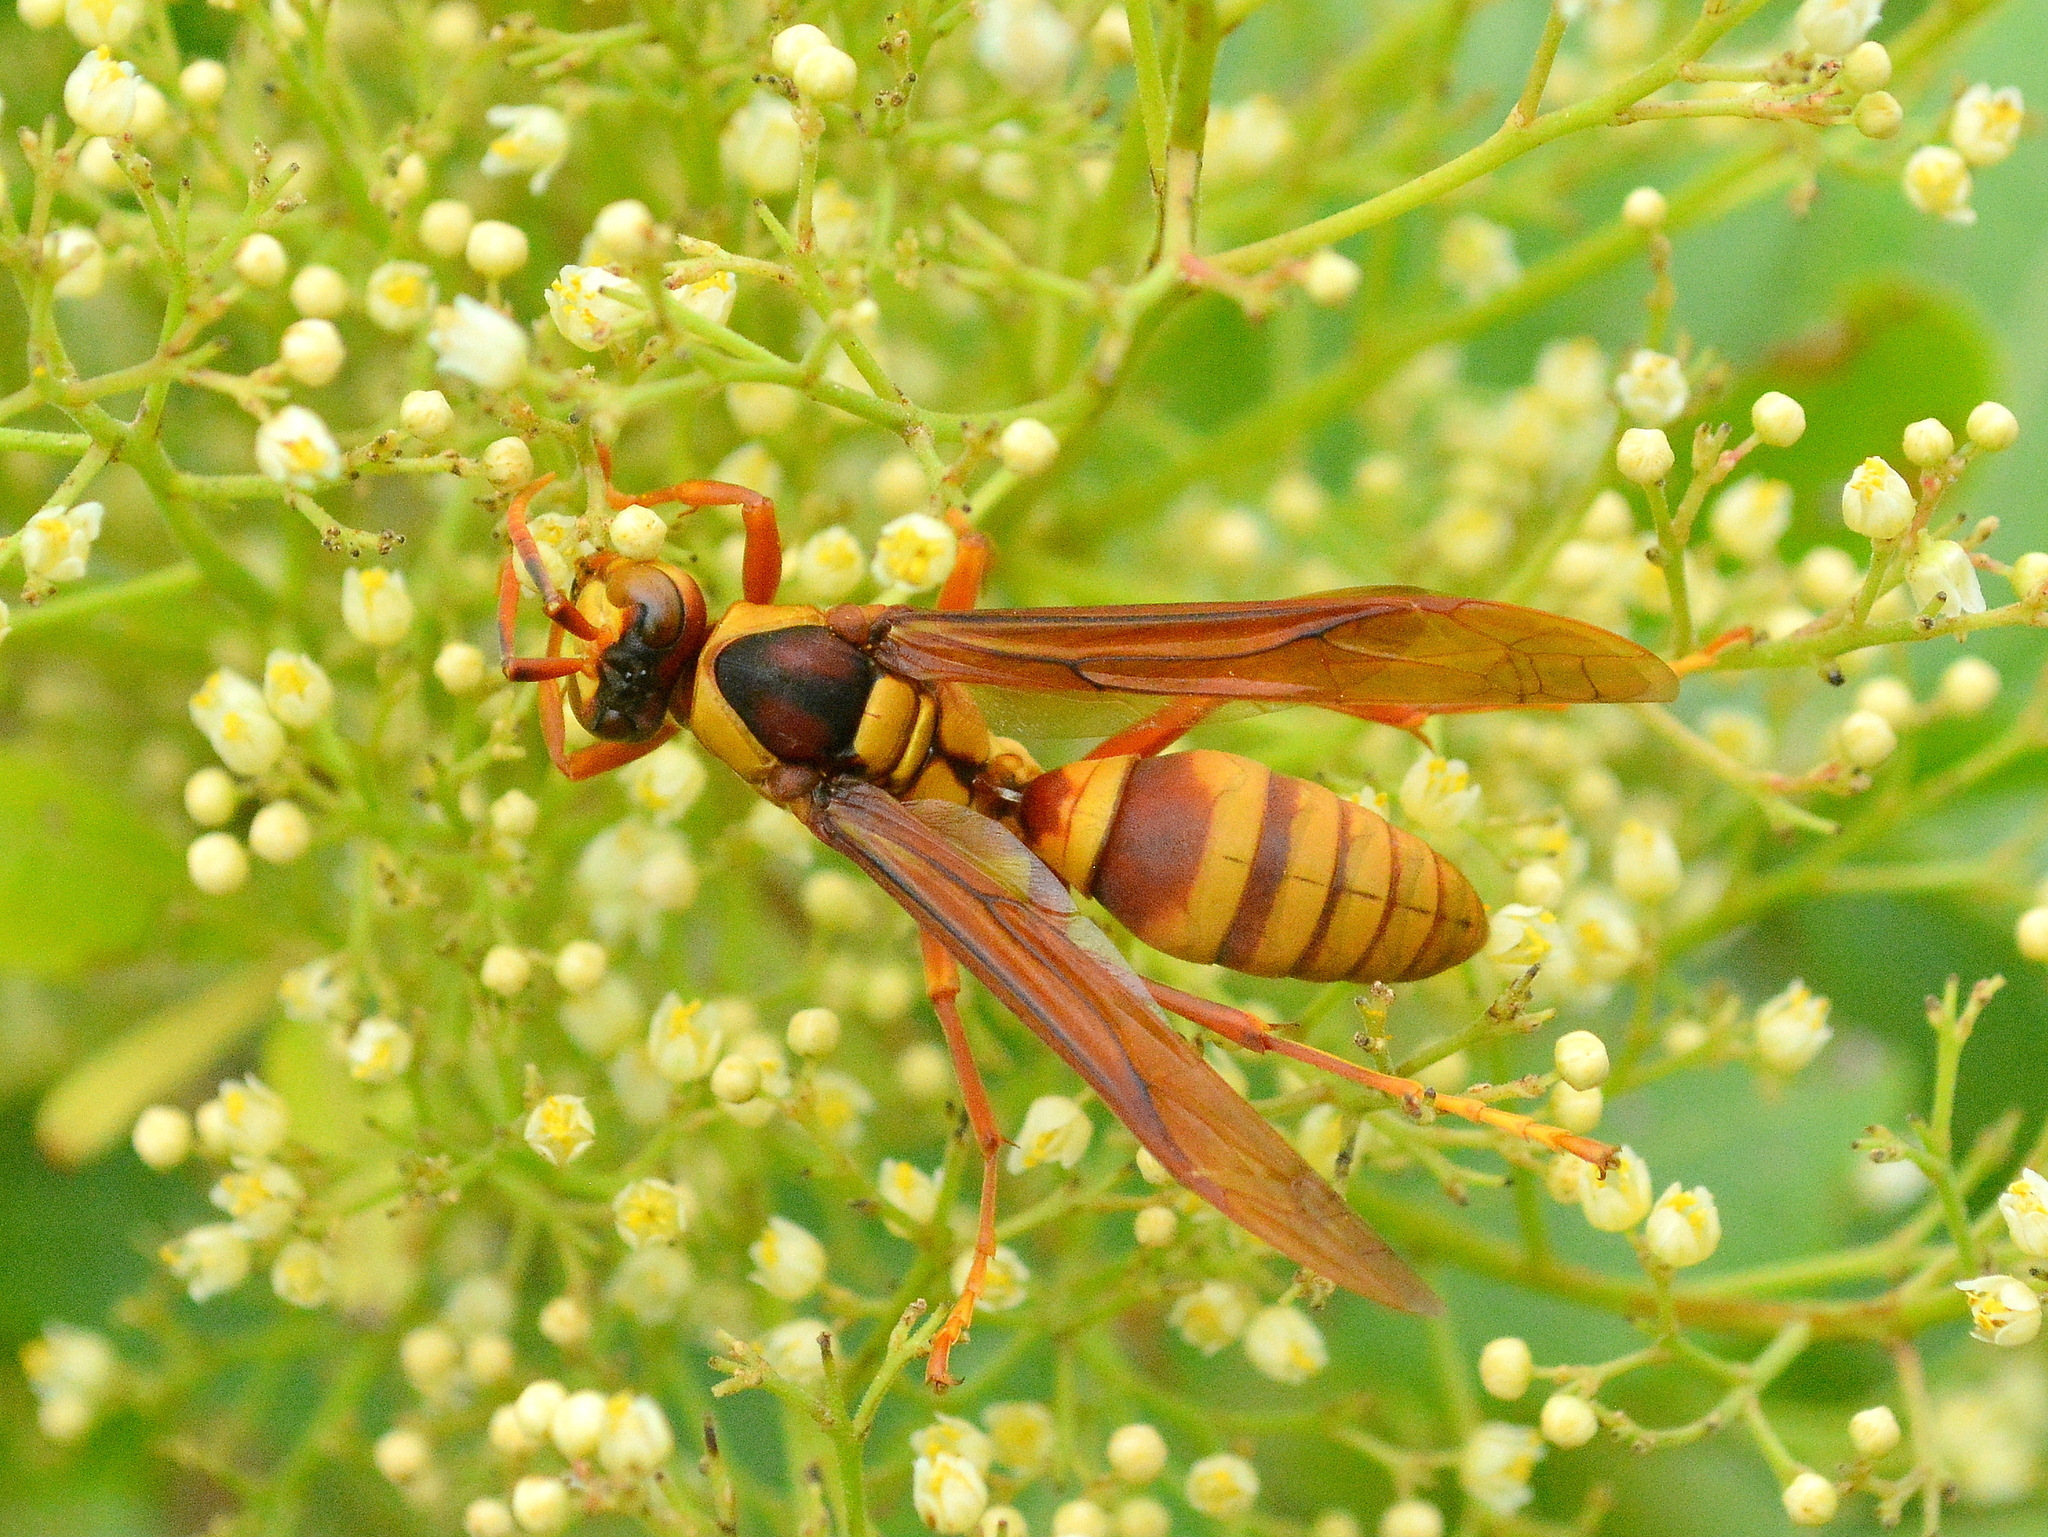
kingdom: Animalia
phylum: Arthropoda
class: Insecta
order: Hymenoptera
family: Eumenidae
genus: Polistes
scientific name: Polistes carnifex
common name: Paper wasp
